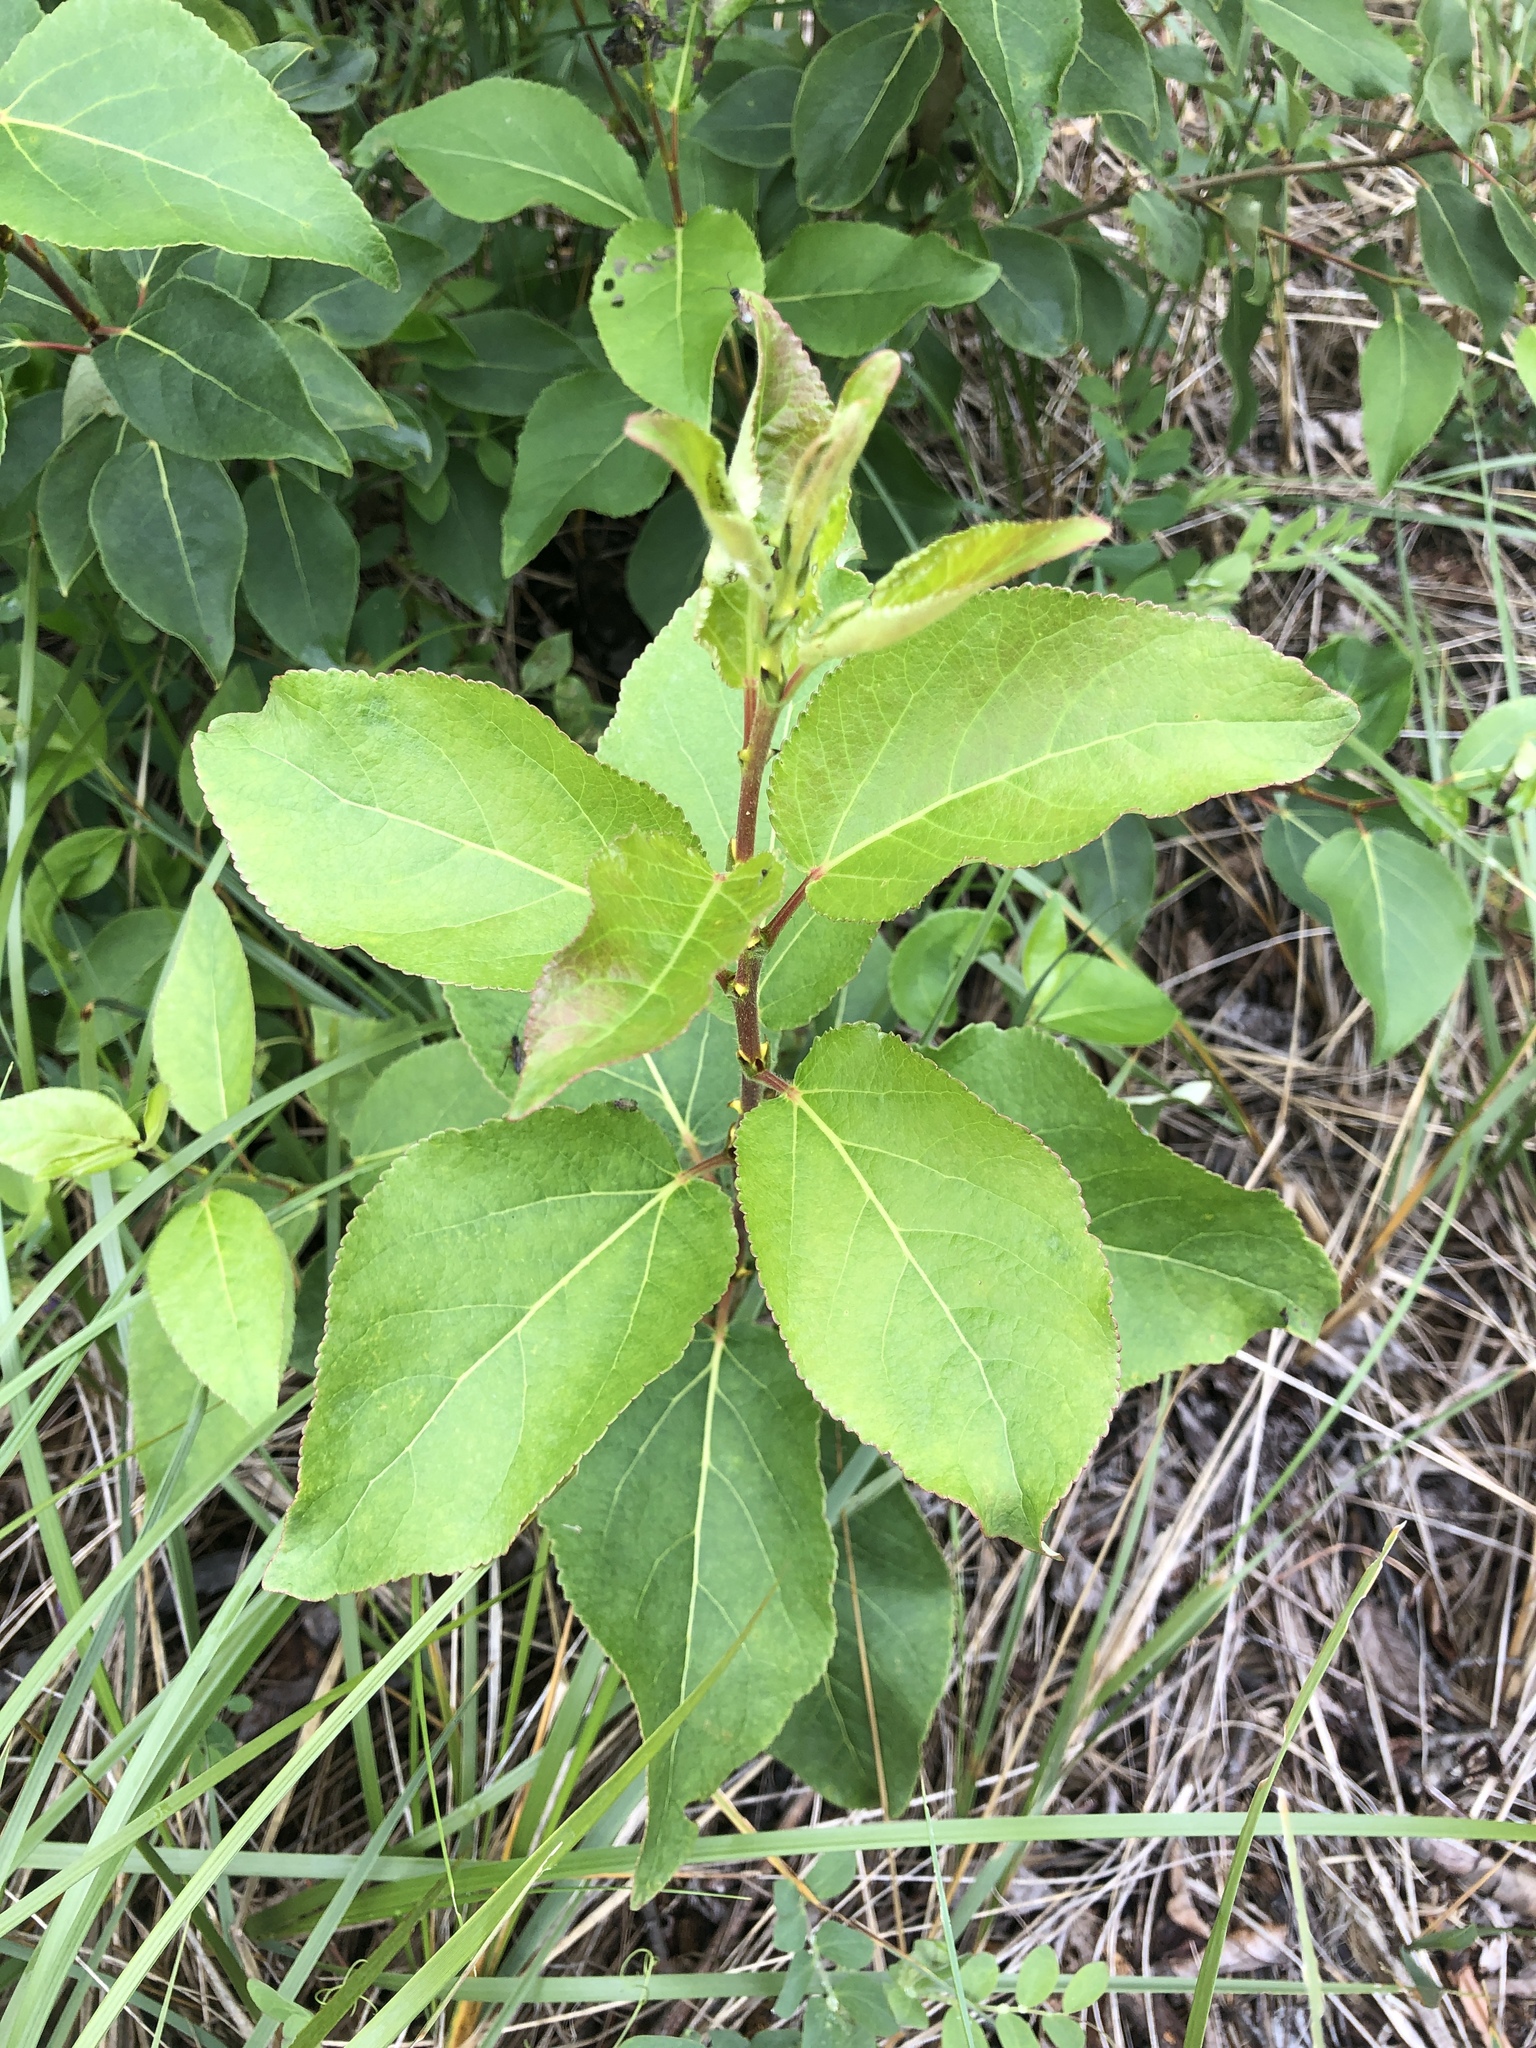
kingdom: Plantae
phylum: Tracheophyta
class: Magnoliopsida
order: Malpighiales
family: Salicaceae
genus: Populus
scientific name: Populus balsamifera
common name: Balsam poplar
